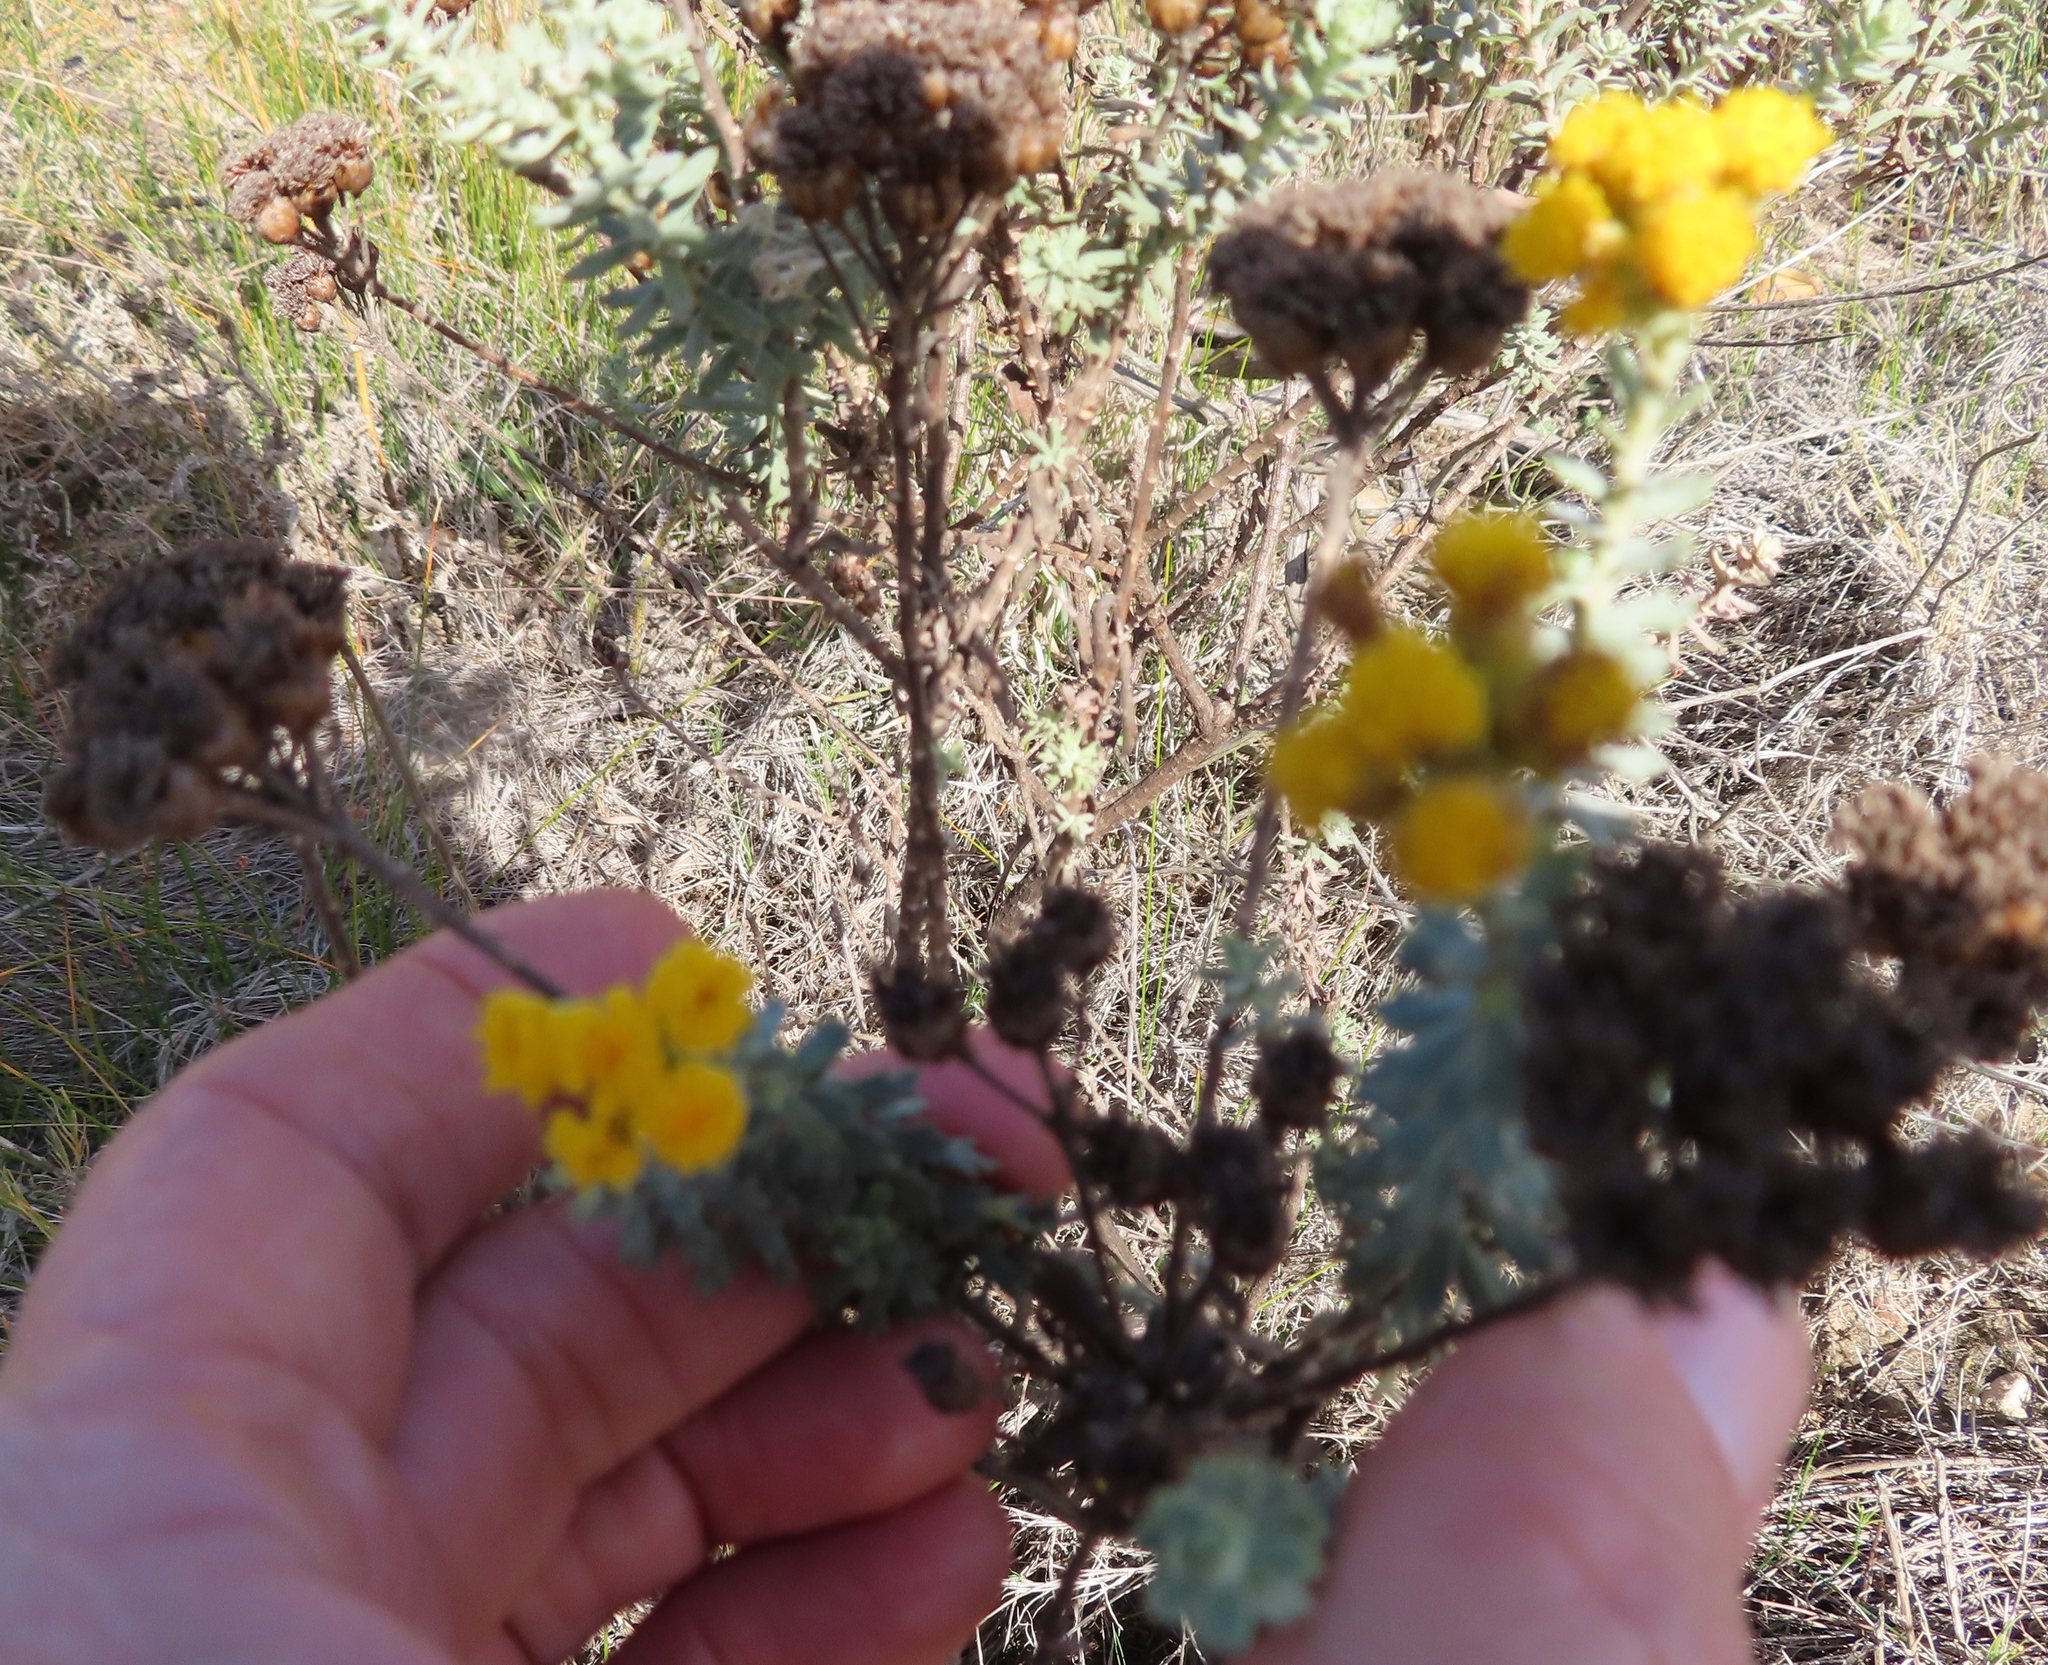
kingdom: Plantae
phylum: Tracheophyta
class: Magnoliopsida
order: Asterales
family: Asteraceae
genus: Athanasia
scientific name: Athanasia trifurcata
